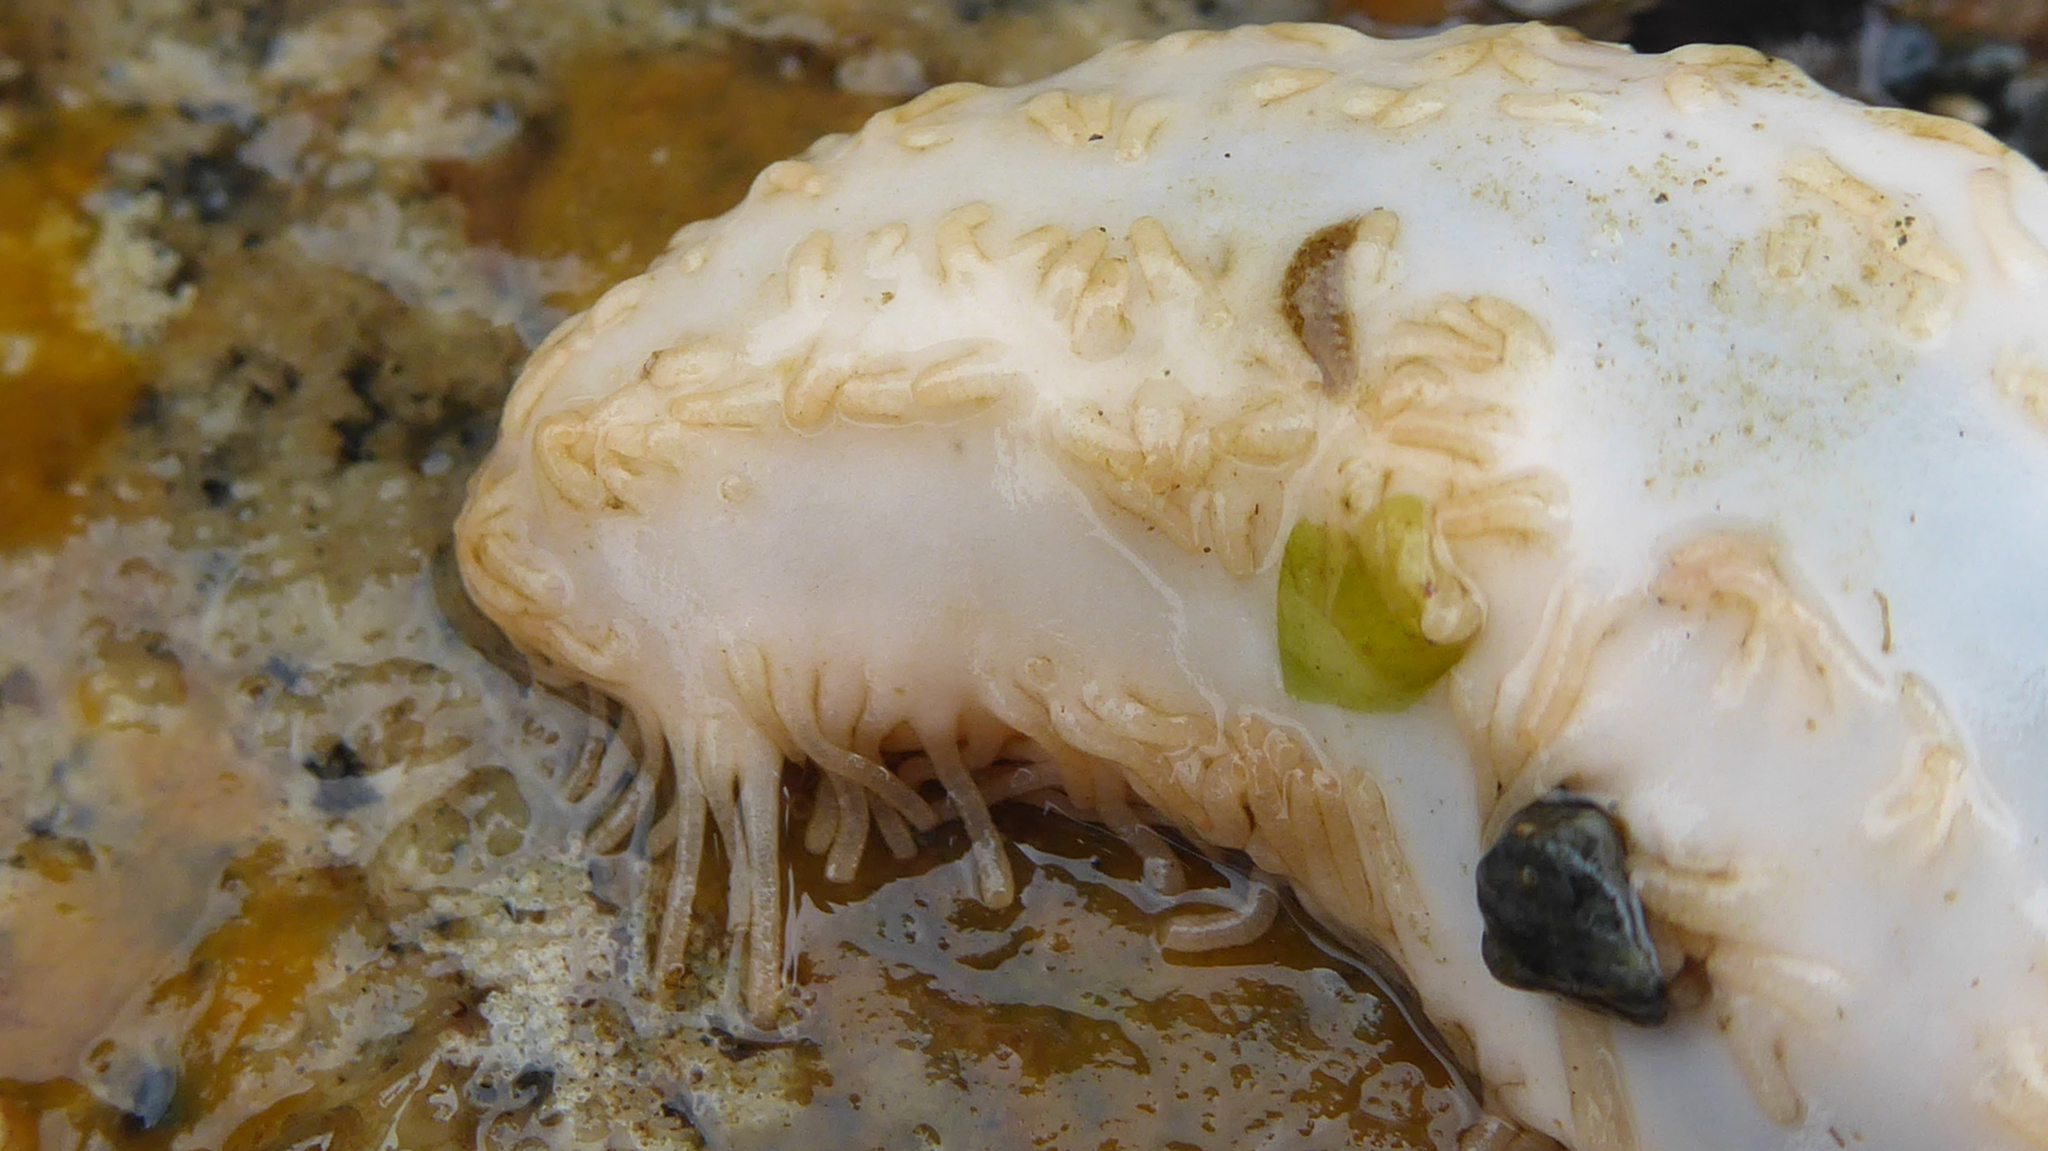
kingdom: Animalia
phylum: Echinodermata
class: Holothuroidea
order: Dendrochirotida
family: Sclerodactylidae
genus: Eupentacta
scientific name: Eupentacta quinquesemita
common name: Pentamerous sea cucumber
